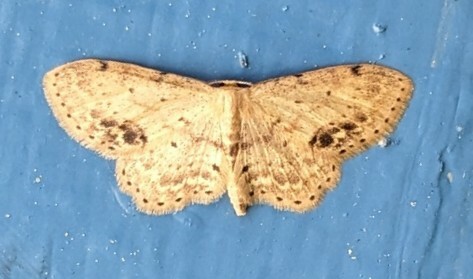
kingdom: Animalia
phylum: Arthropoda
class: Insecta
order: Lepidoptera
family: Geometridae
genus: Idaea
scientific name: Idaea dimidiata
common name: Single-dotted wave
